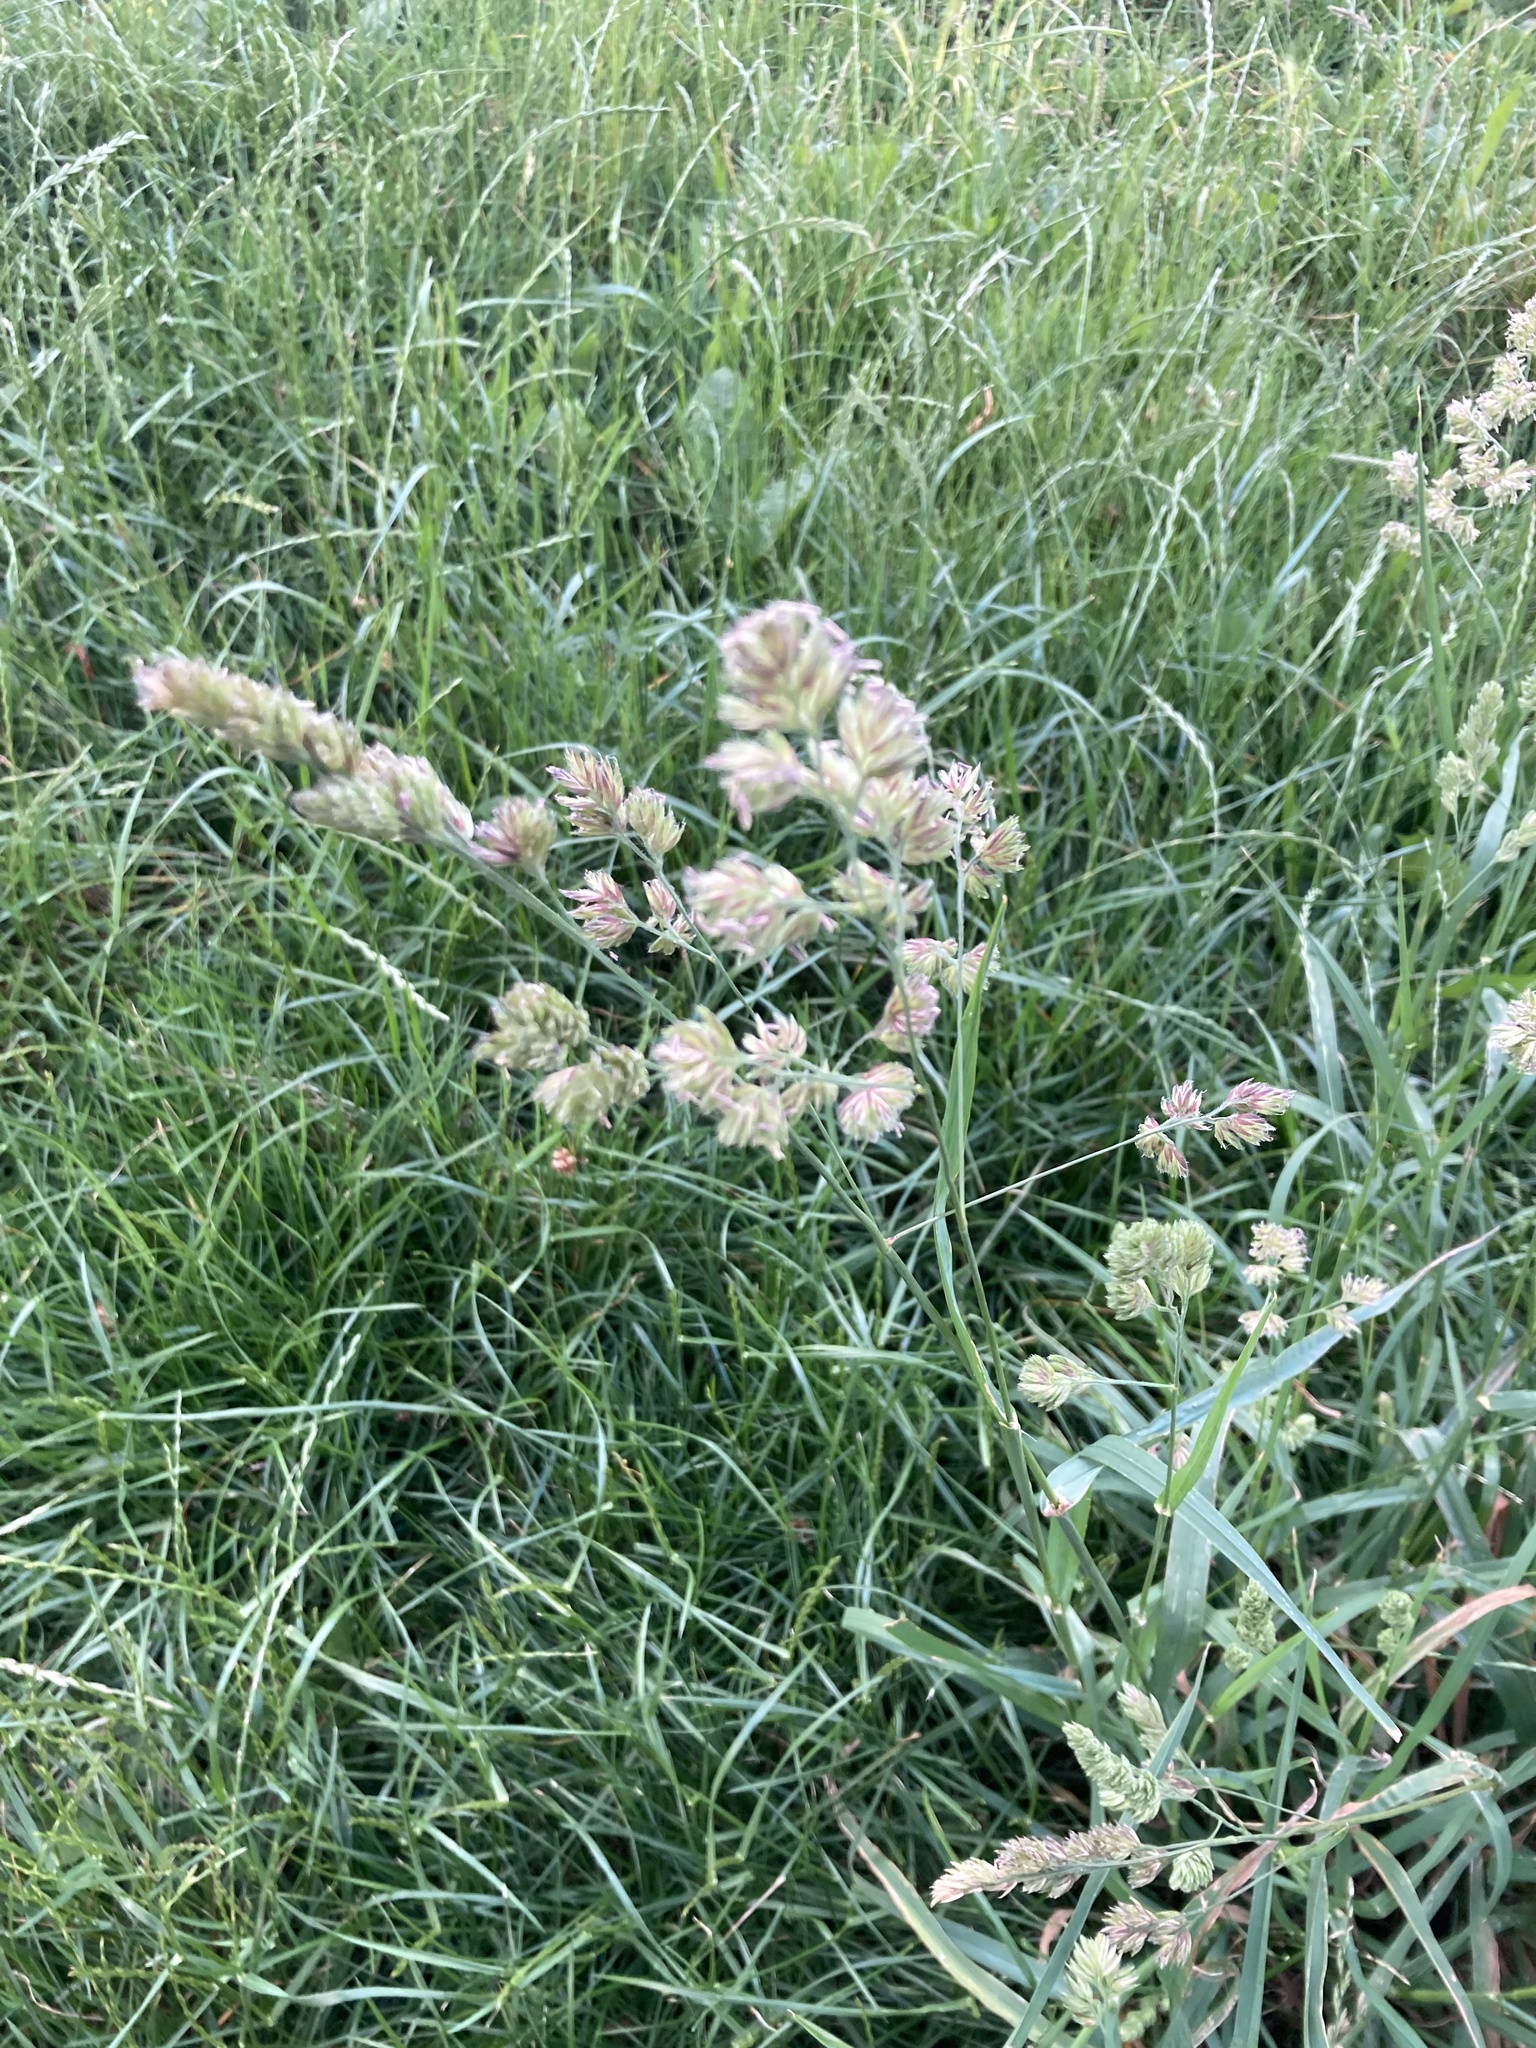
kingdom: Plantae
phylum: Tracheophyta
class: Liliopsida
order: Poales
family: Poaceae
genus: Dactylis
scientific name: Dactylis glomerata
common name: Orchardgrass
